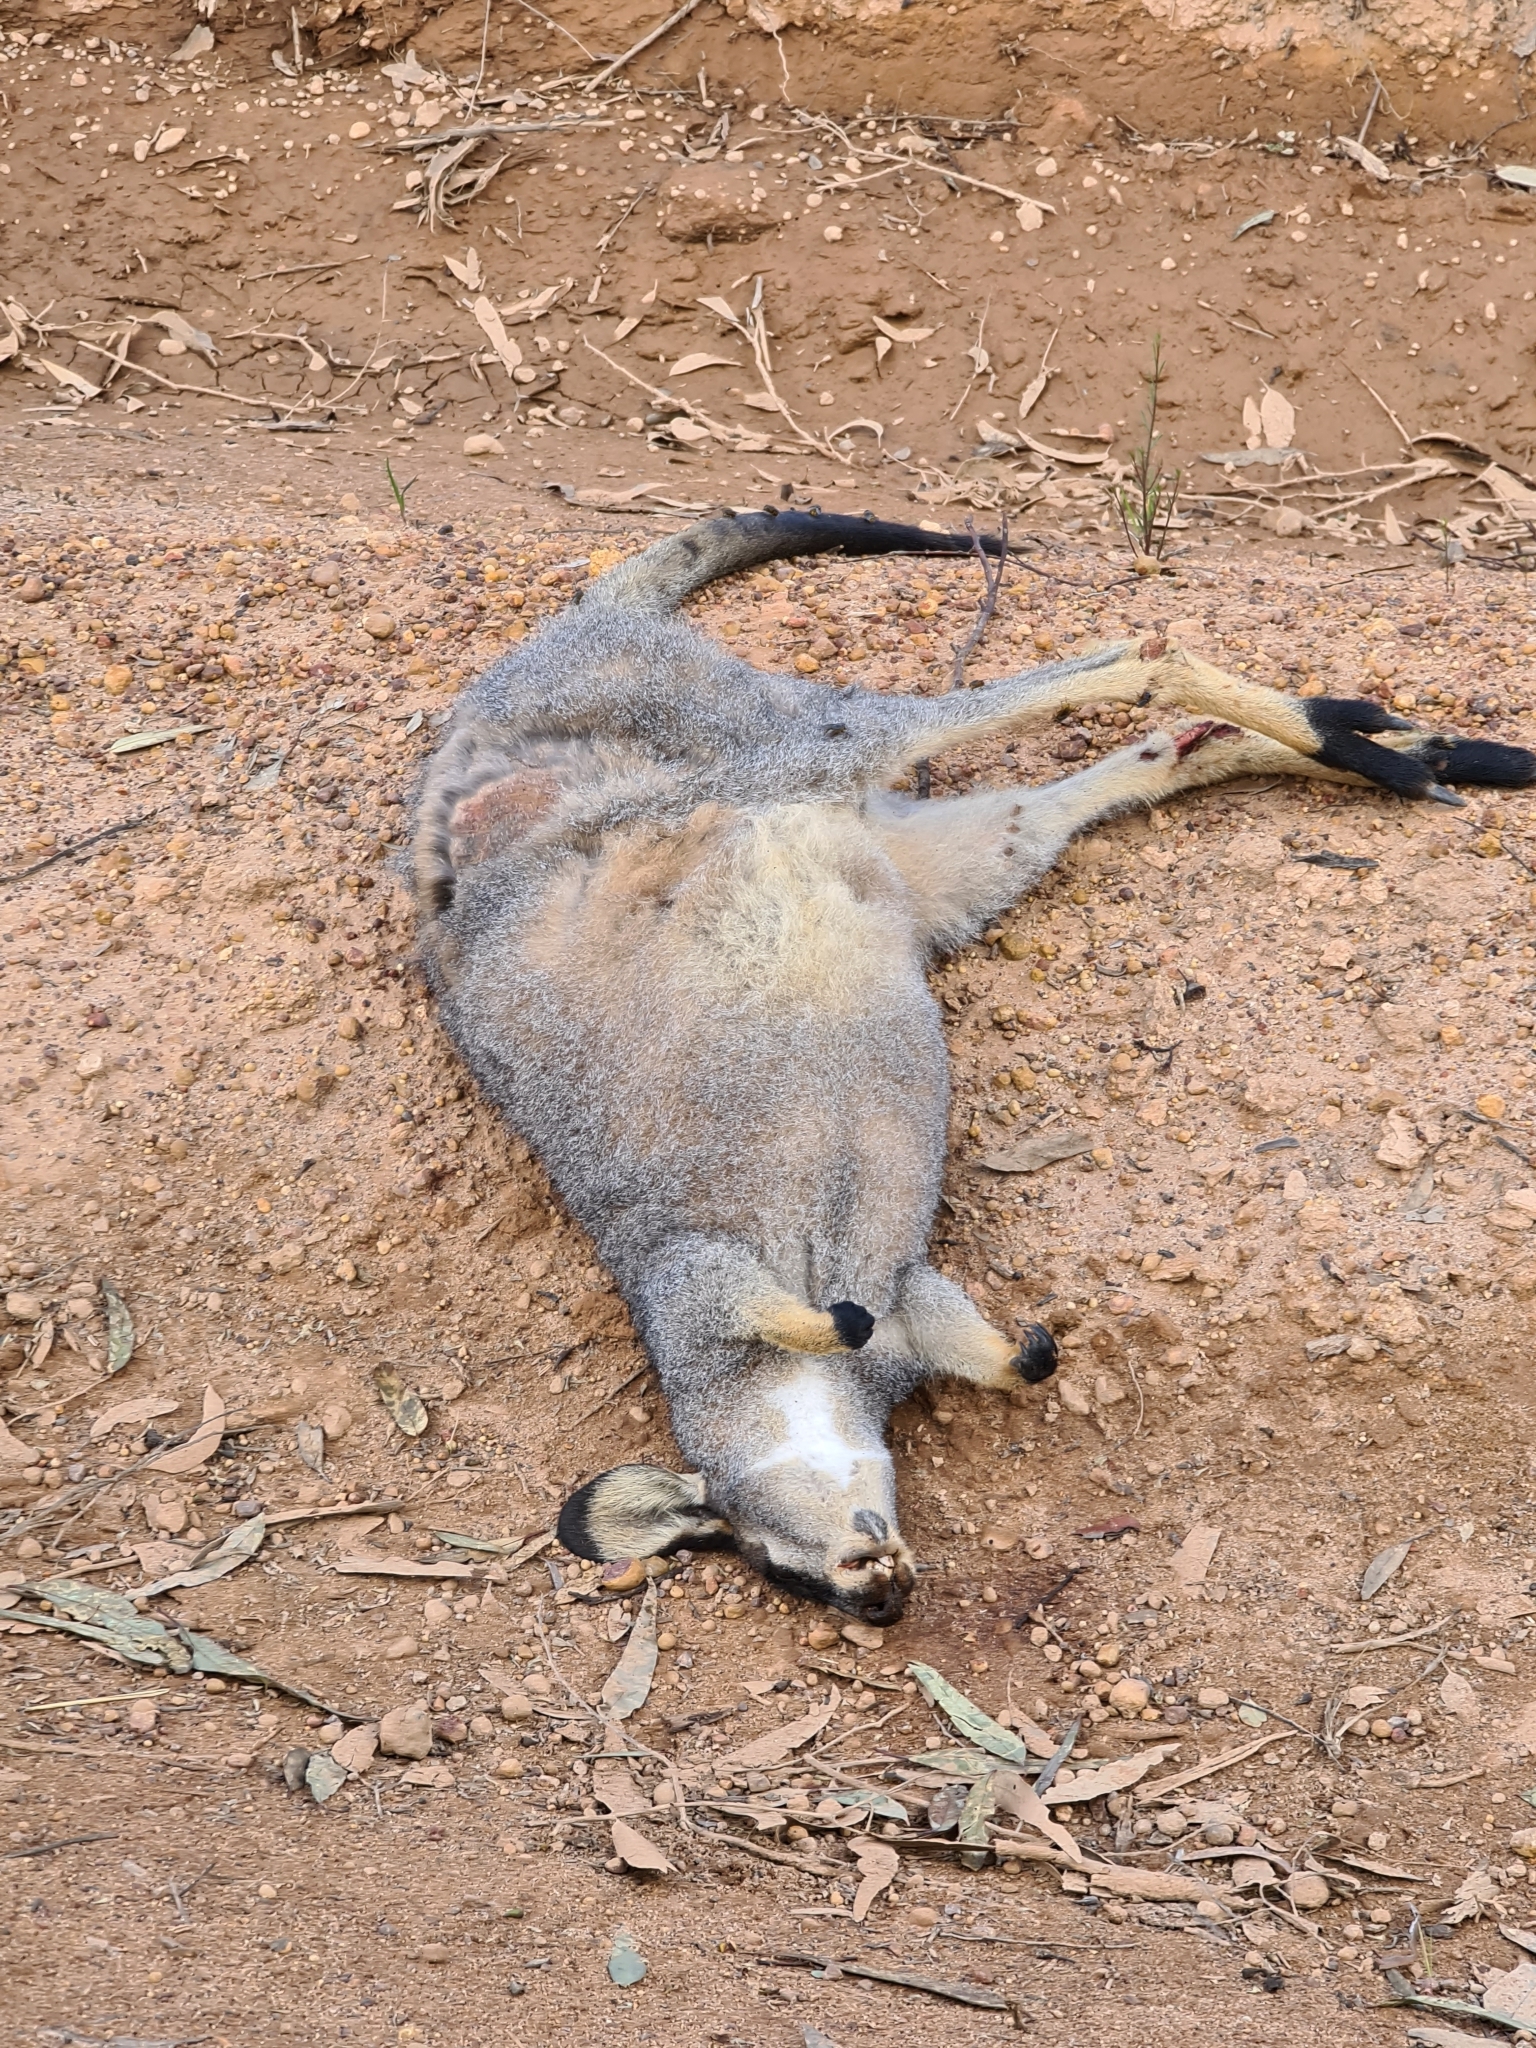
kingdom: Animalia
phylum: Chordata
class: Mammalia
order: Diprotodontia
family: Macropodidae
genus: Notamacropus
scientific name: Notamacropus irma
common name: Western brush wallaby
